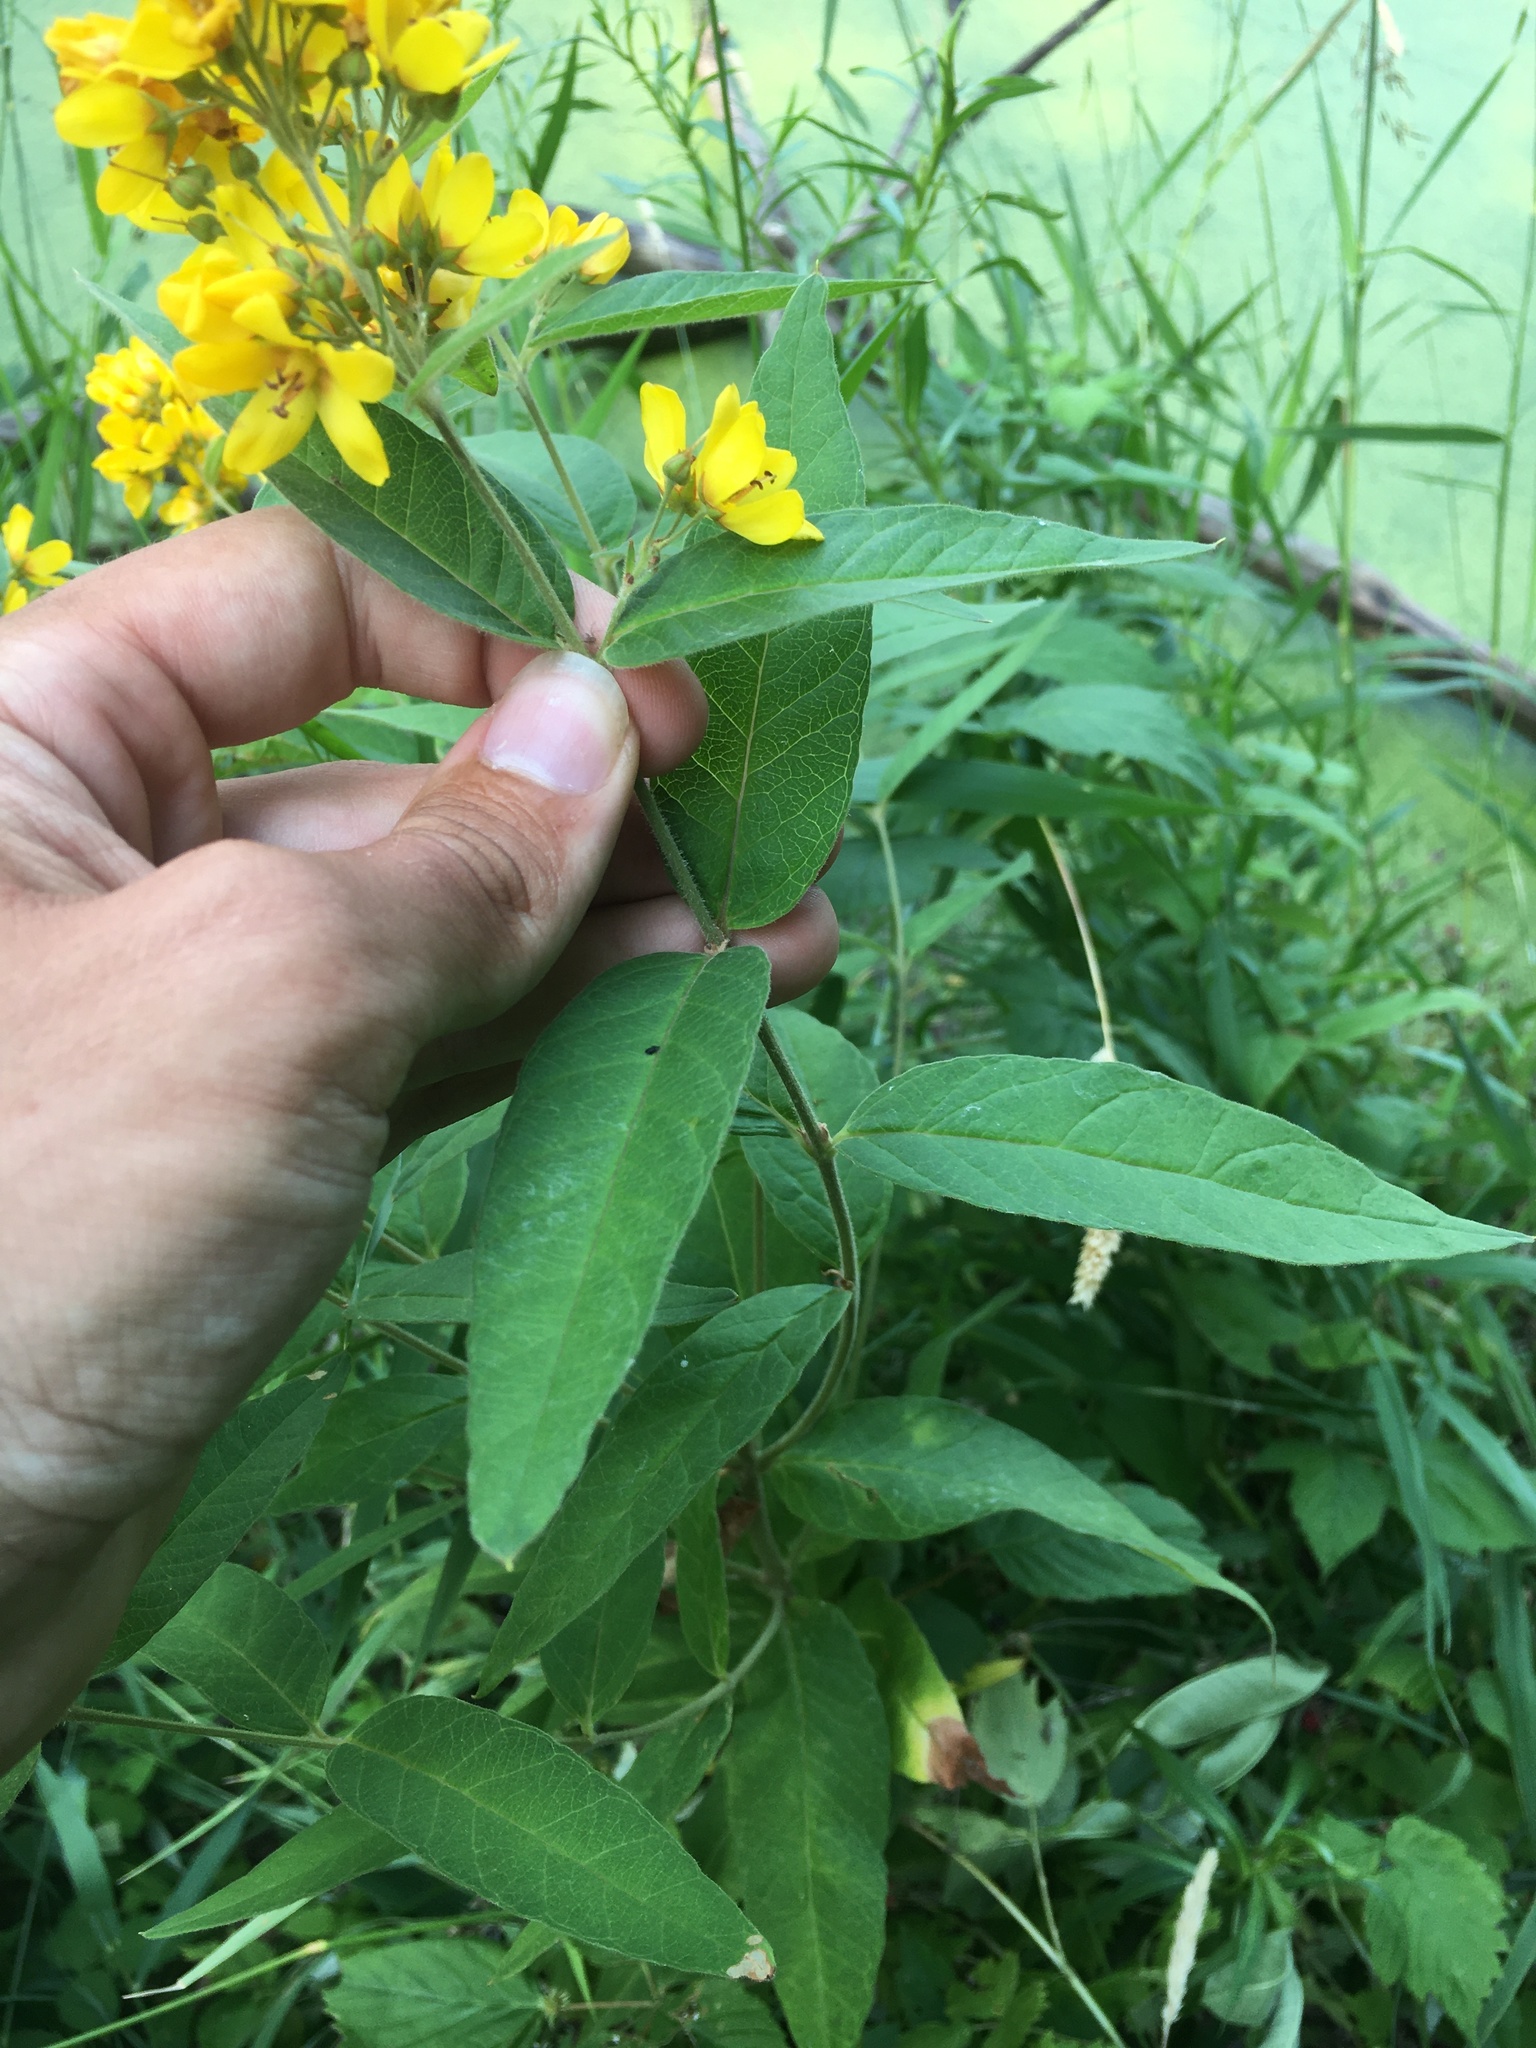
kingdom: Plantae
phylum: Tracheophyta
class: Magnoliopsida
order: Ericales
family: Primulaceae
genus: Lysimachia
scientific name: Lysimachia vulgaris
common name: Yellow loosestrife
